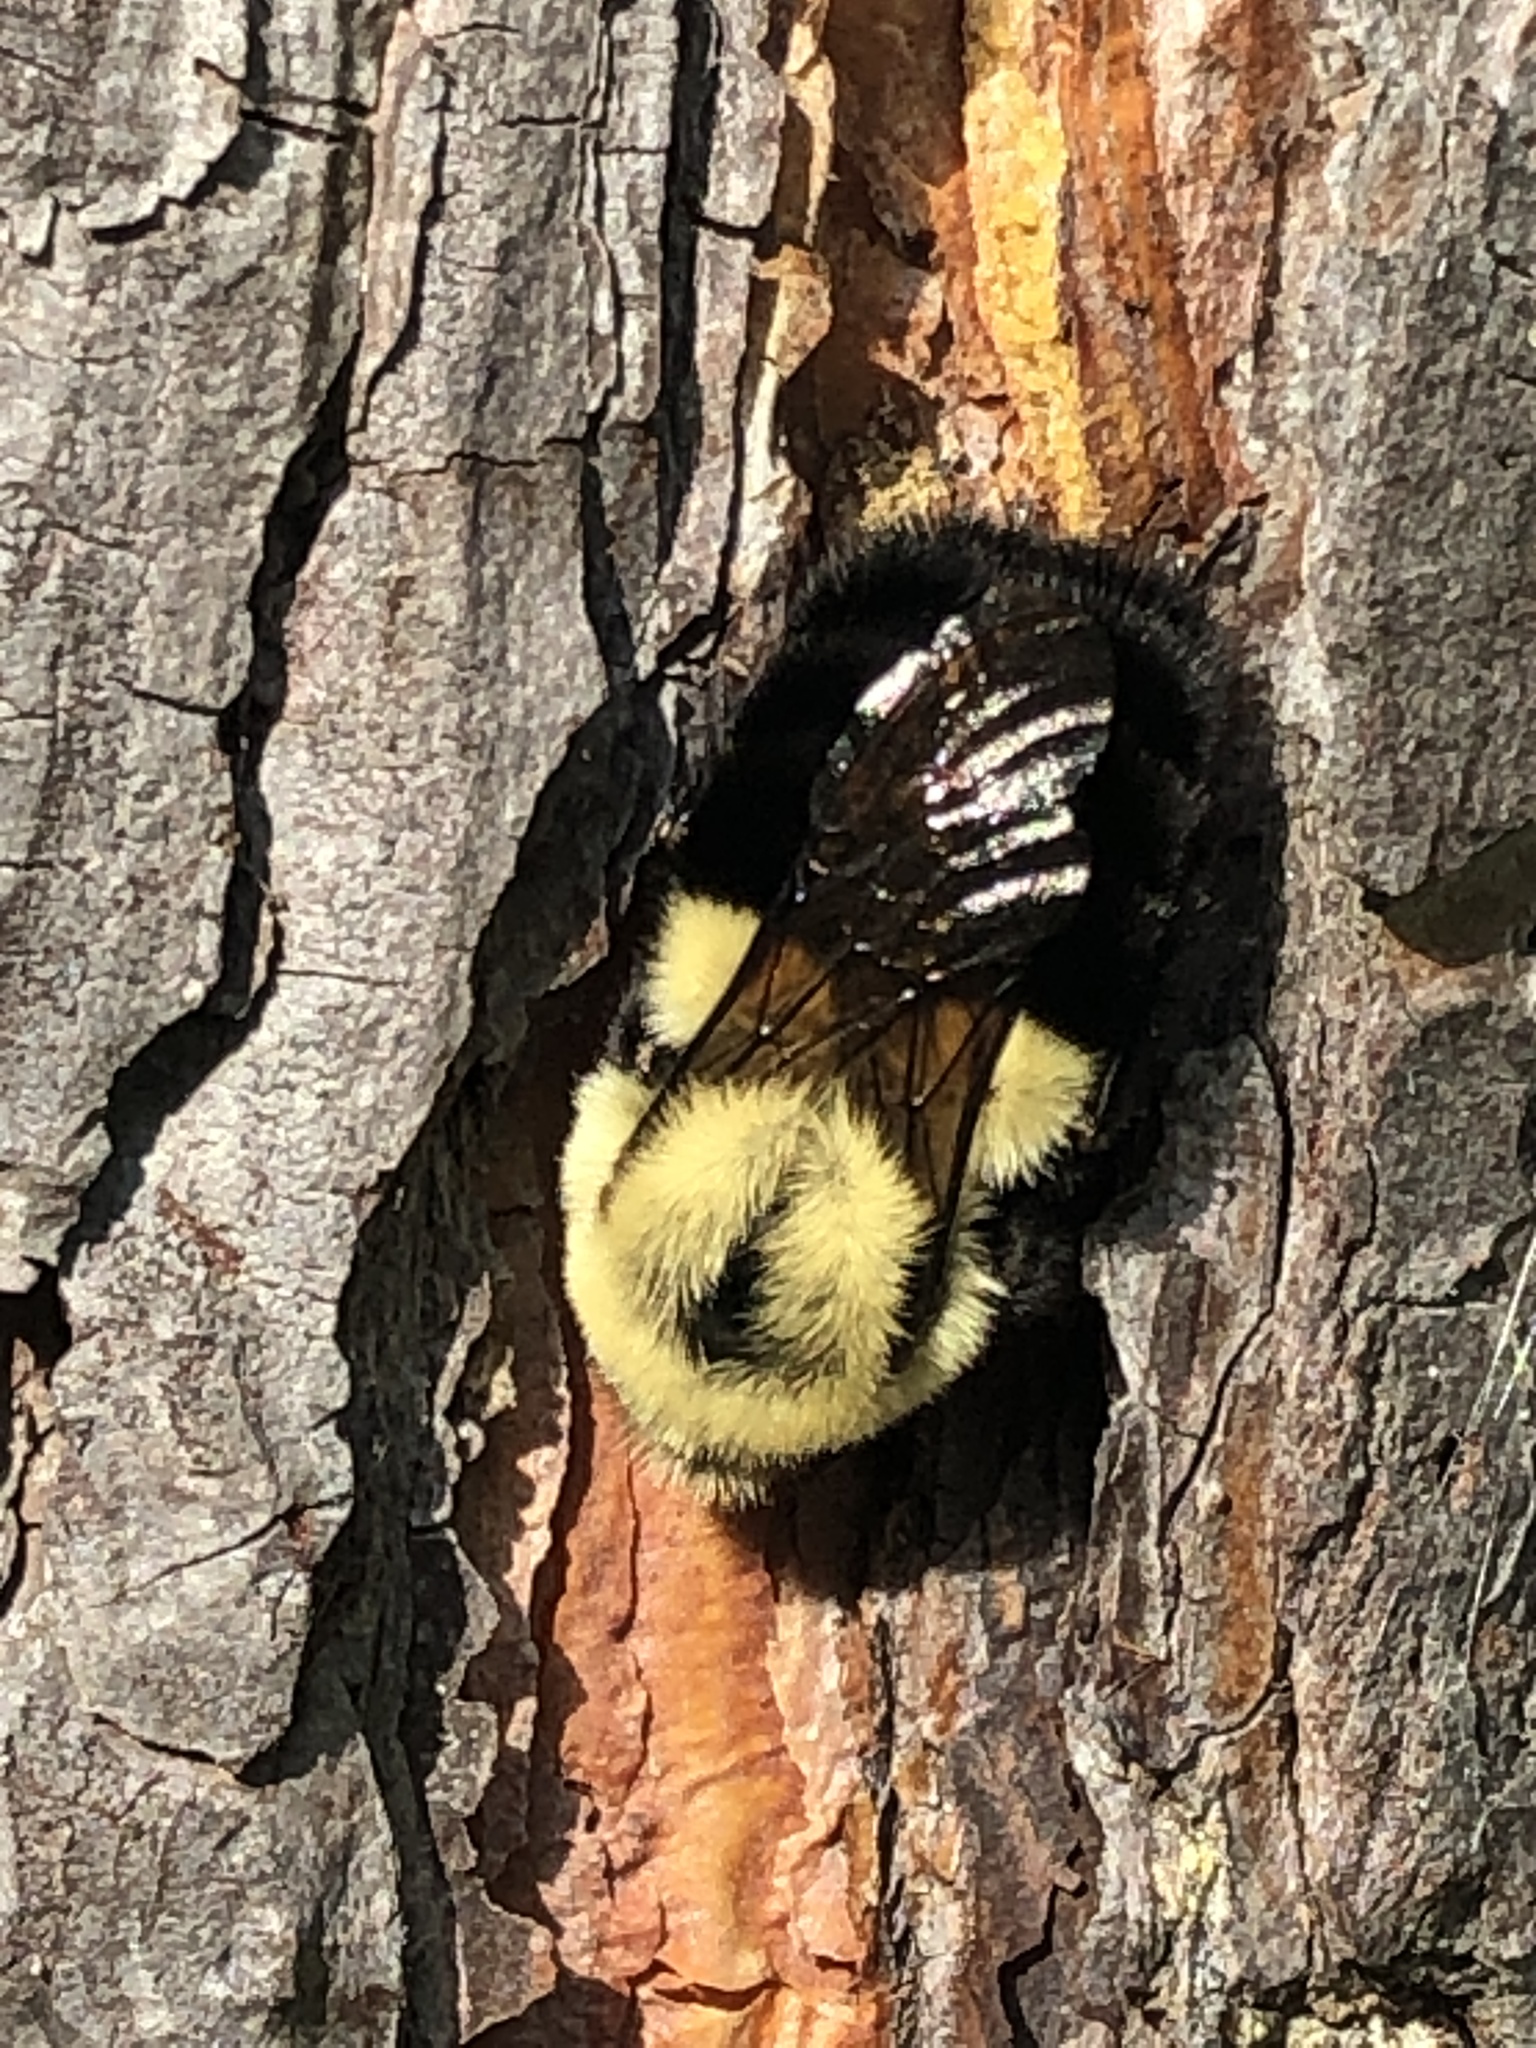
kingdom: Animalia
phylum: Arthropoda
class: Insecta
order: Hymenoptera
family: Apidae
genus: Bombus
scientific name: Bombus impatiens
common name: Common eastern bumble bee
